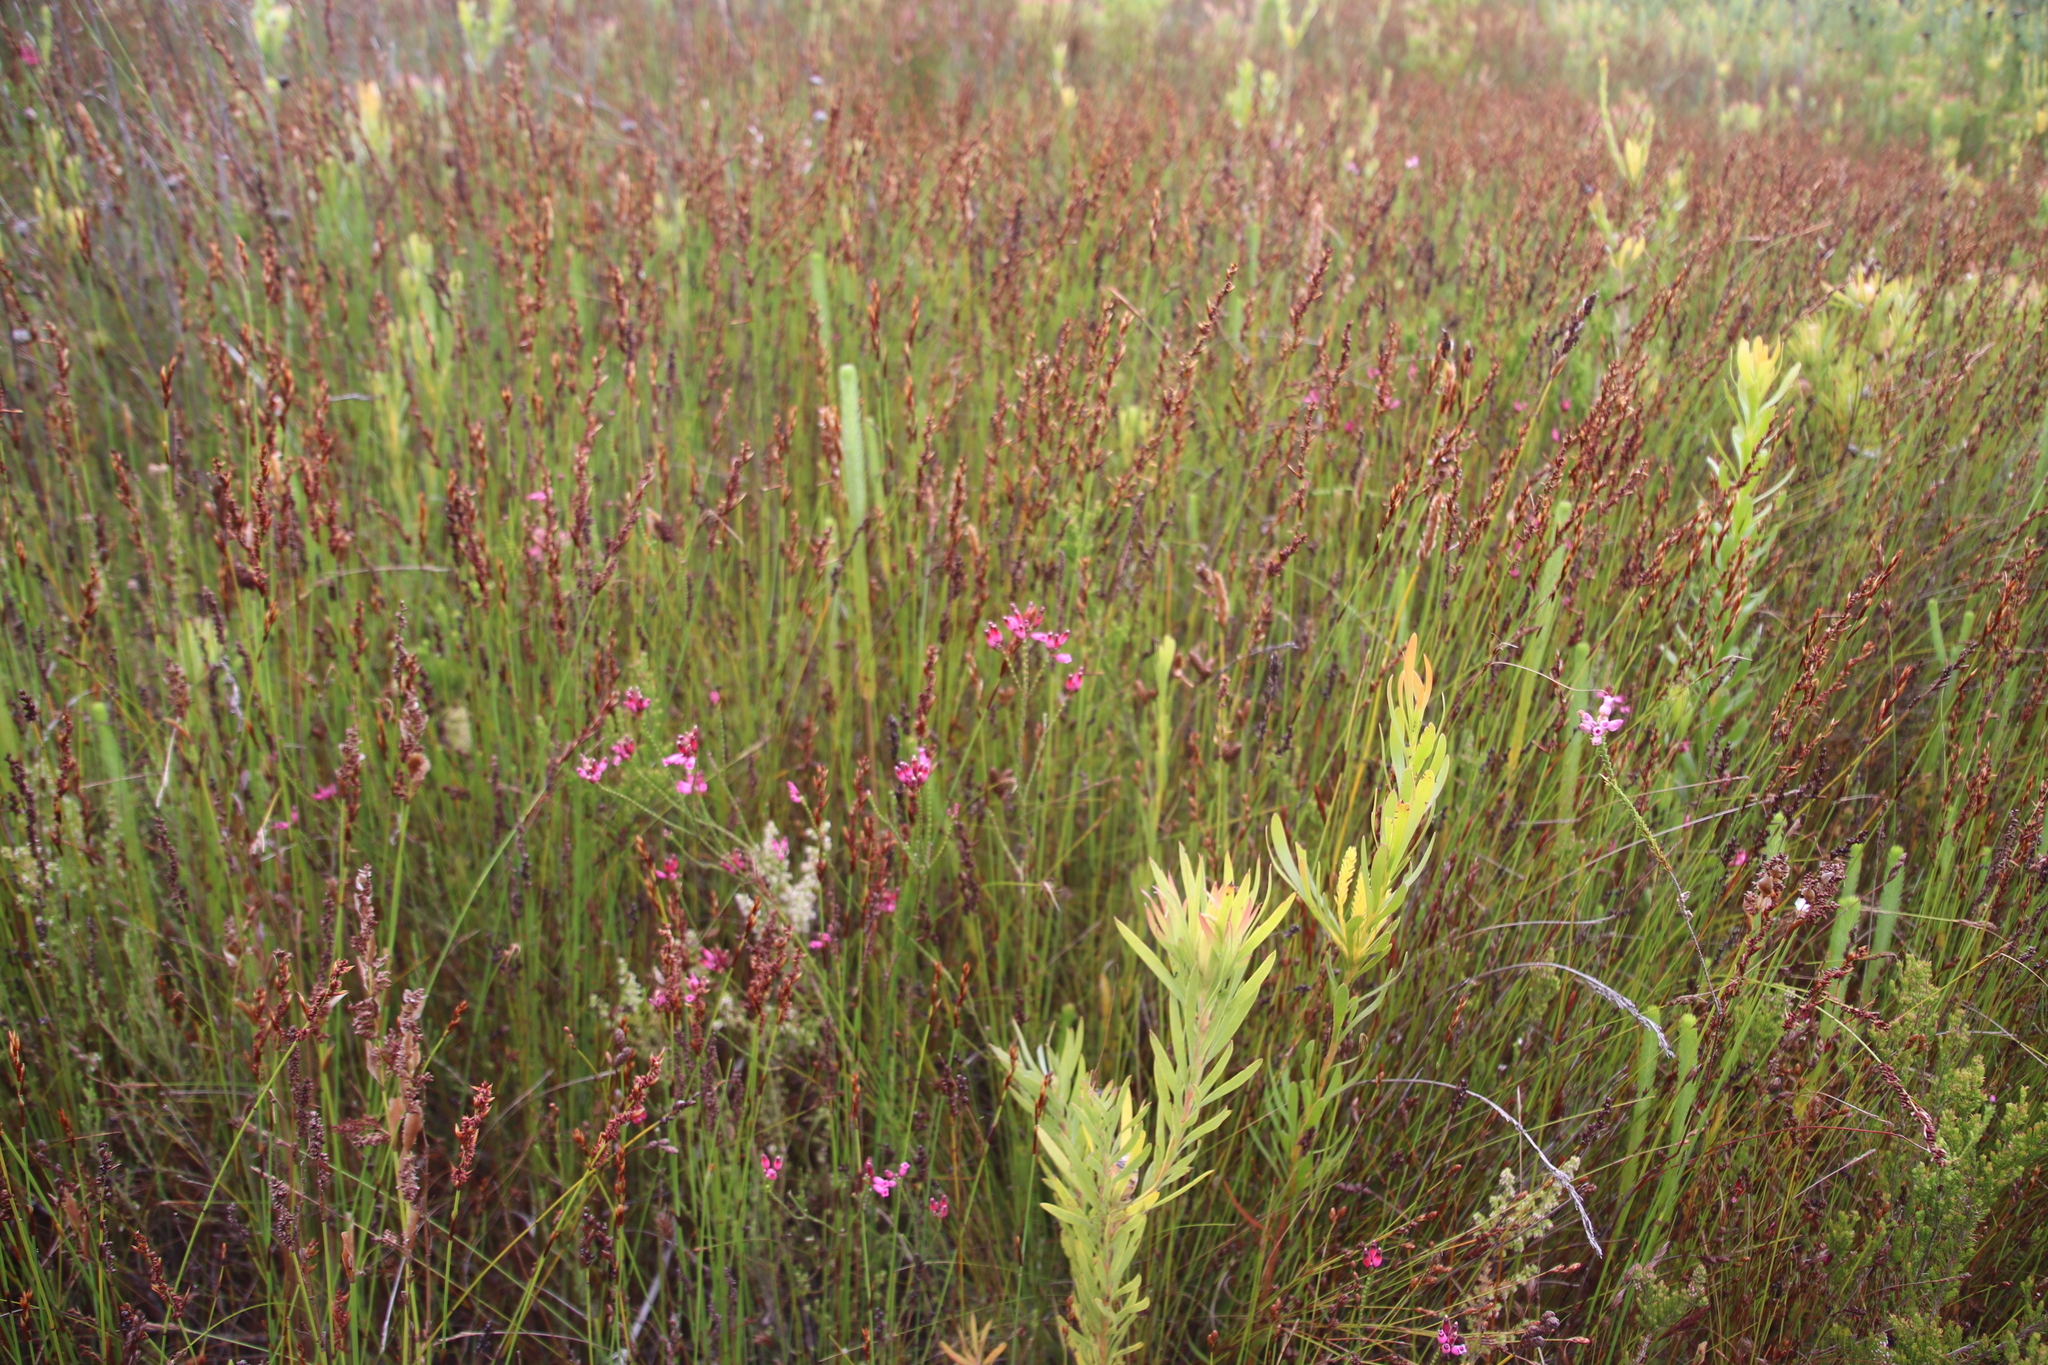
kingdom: Plantae
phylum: Tracheophyta
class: Magnoliopsida
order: Ericales
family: Ericaceae
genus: Erica
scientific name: Erica cristata
